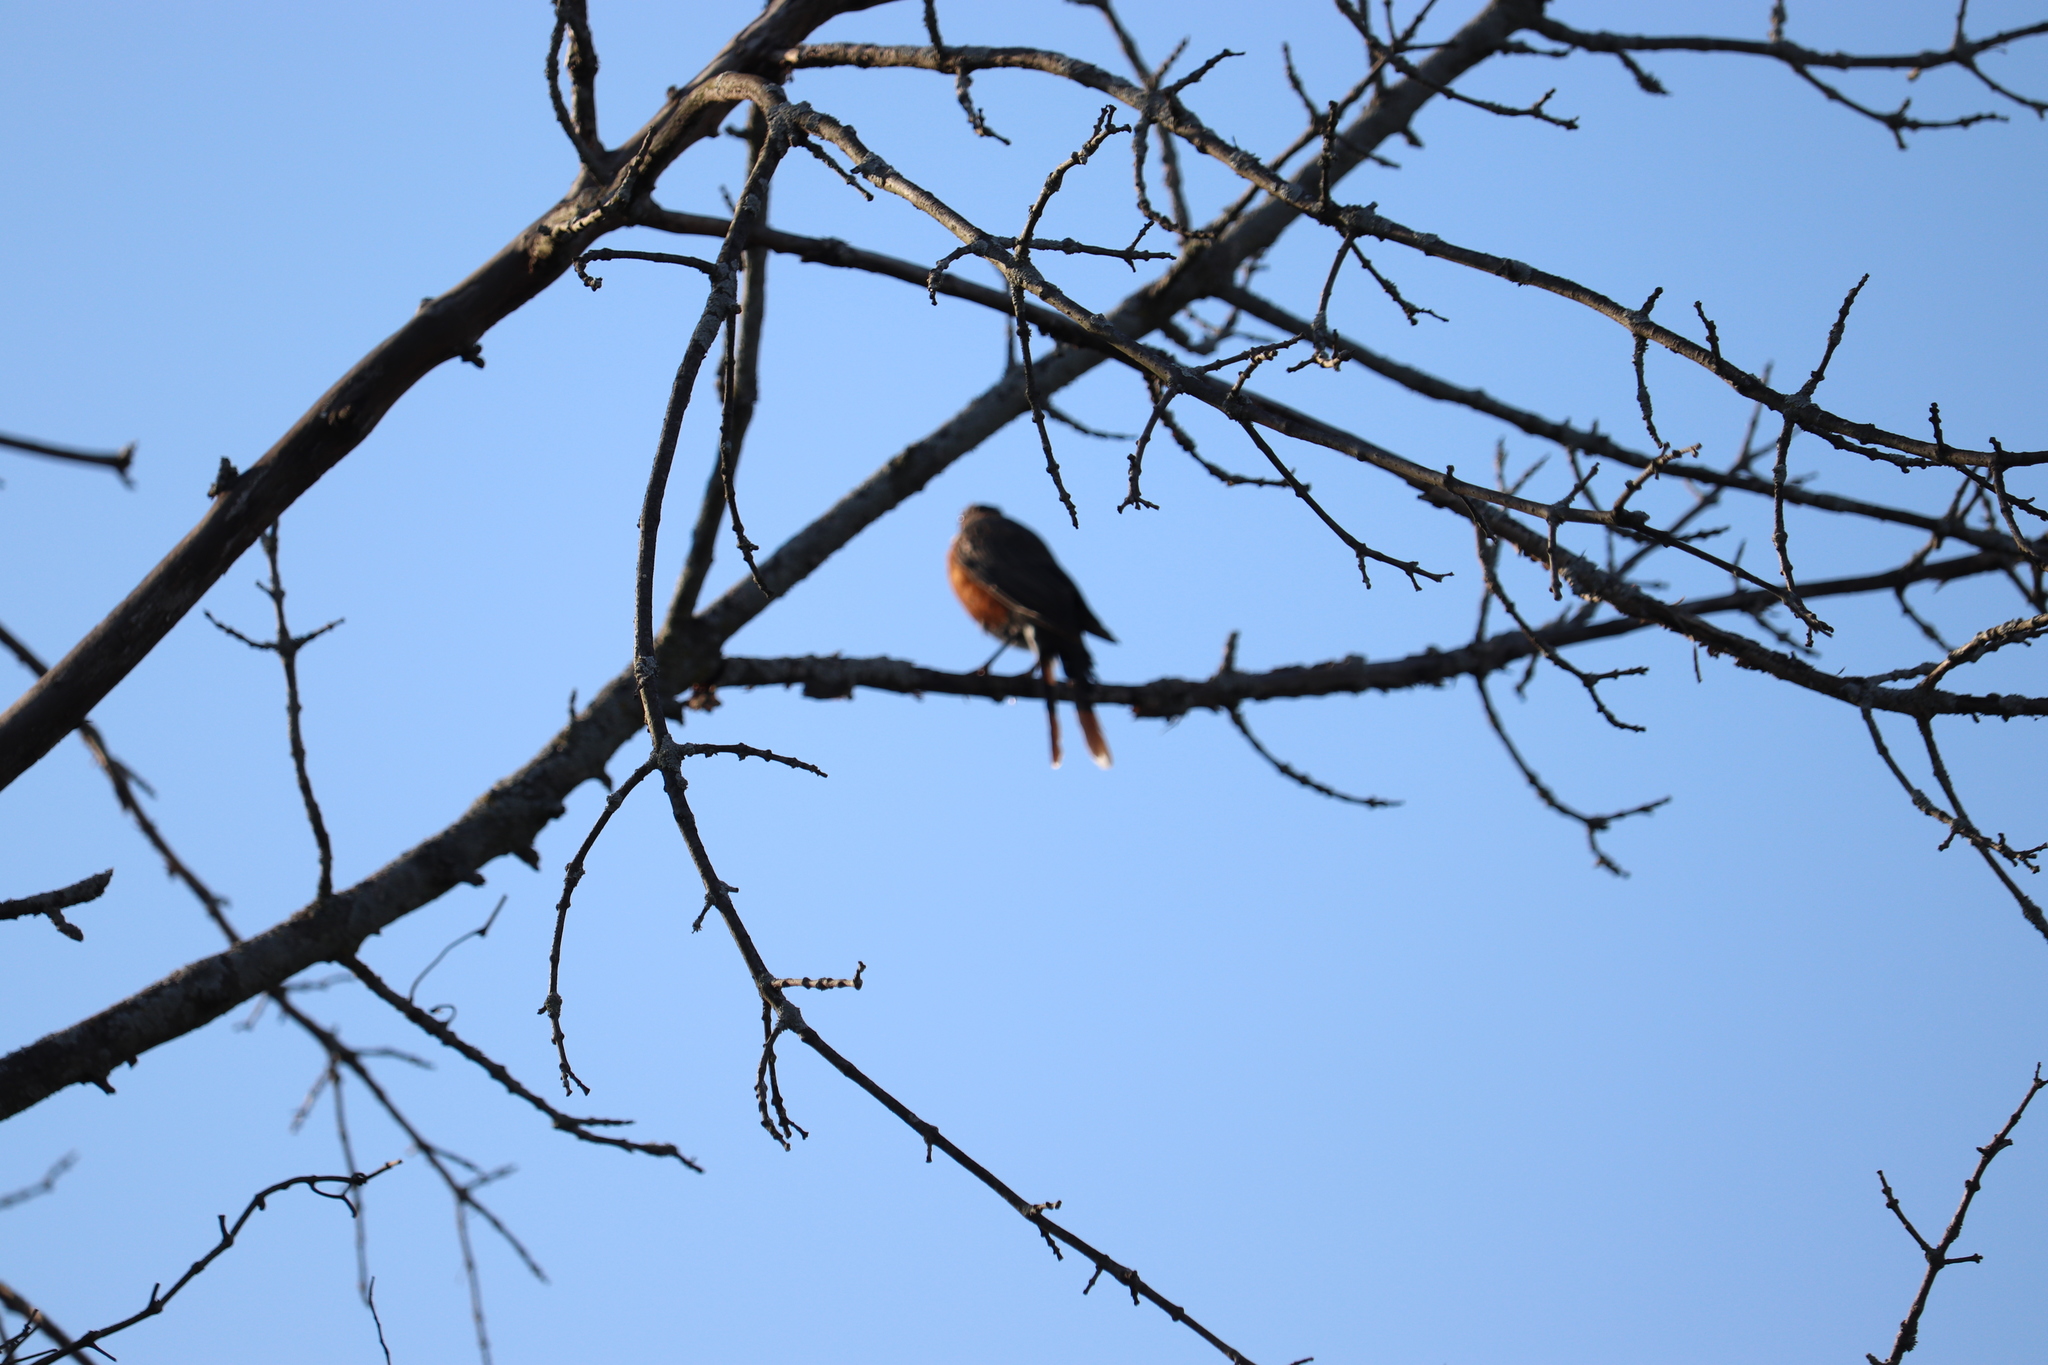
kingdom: Animalia
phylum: Chordata
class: Aves
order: Passeriformes
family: Turdidae
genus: Turdus
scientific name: Turdus migratorius
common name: American robin
